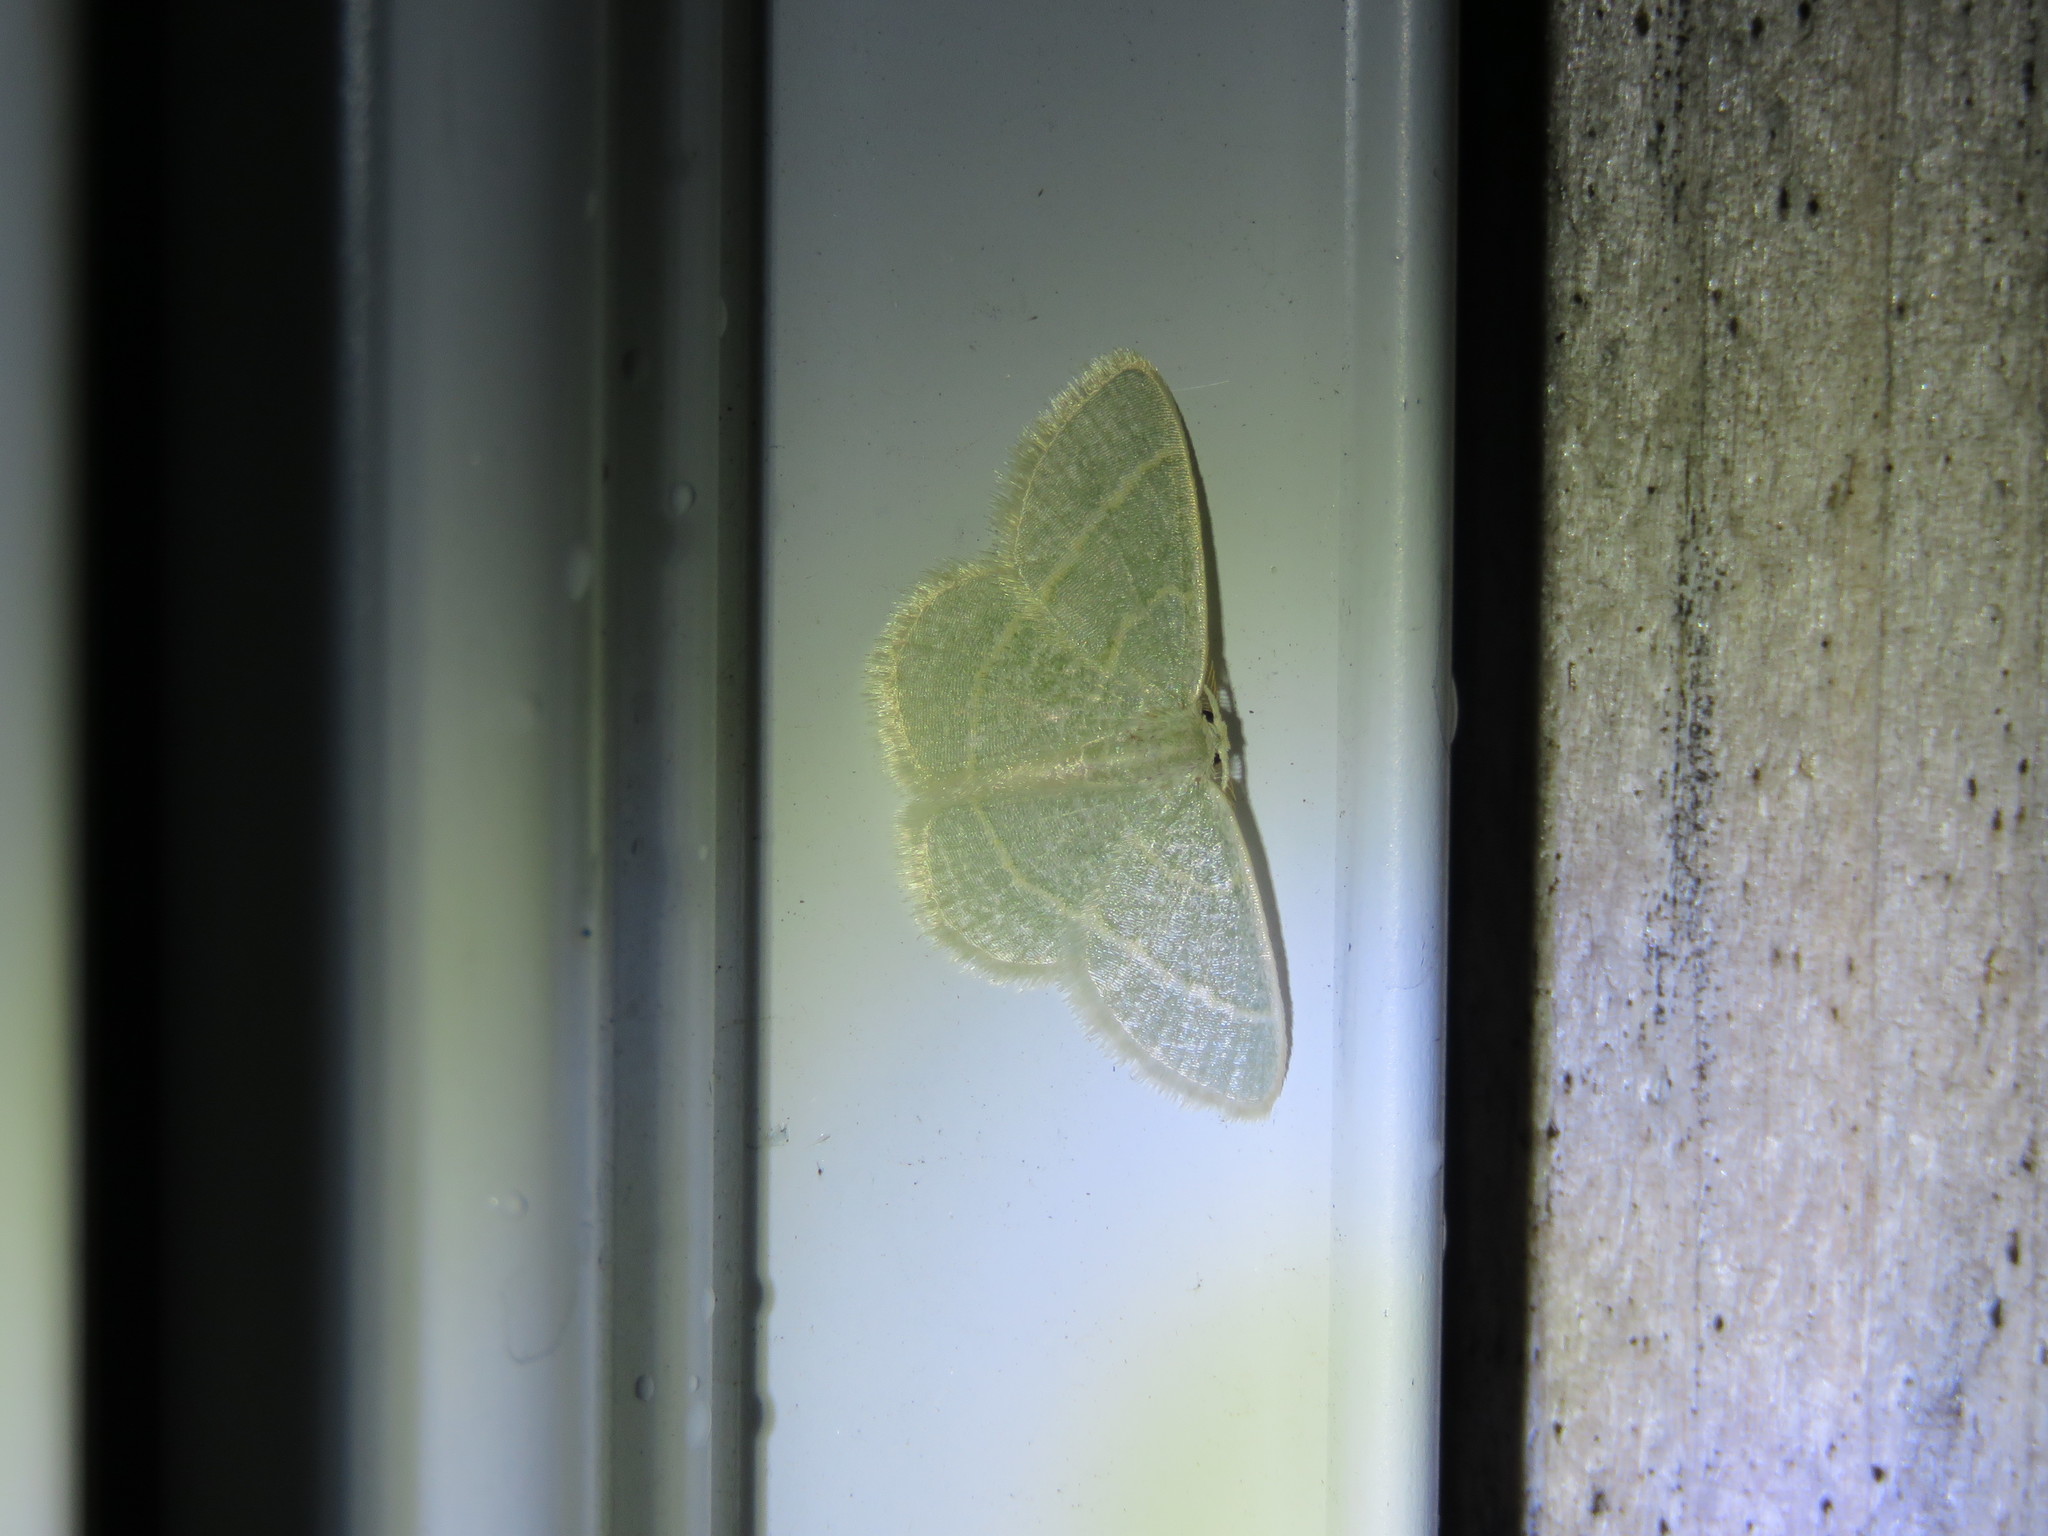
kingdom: Animalia
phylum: Arthropoda
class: Insecta
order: Lepidoptera
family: Geometridae
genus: Chlorochlamys
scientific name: Chlorochlamys chloroleucaria
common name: Blackberry looper
